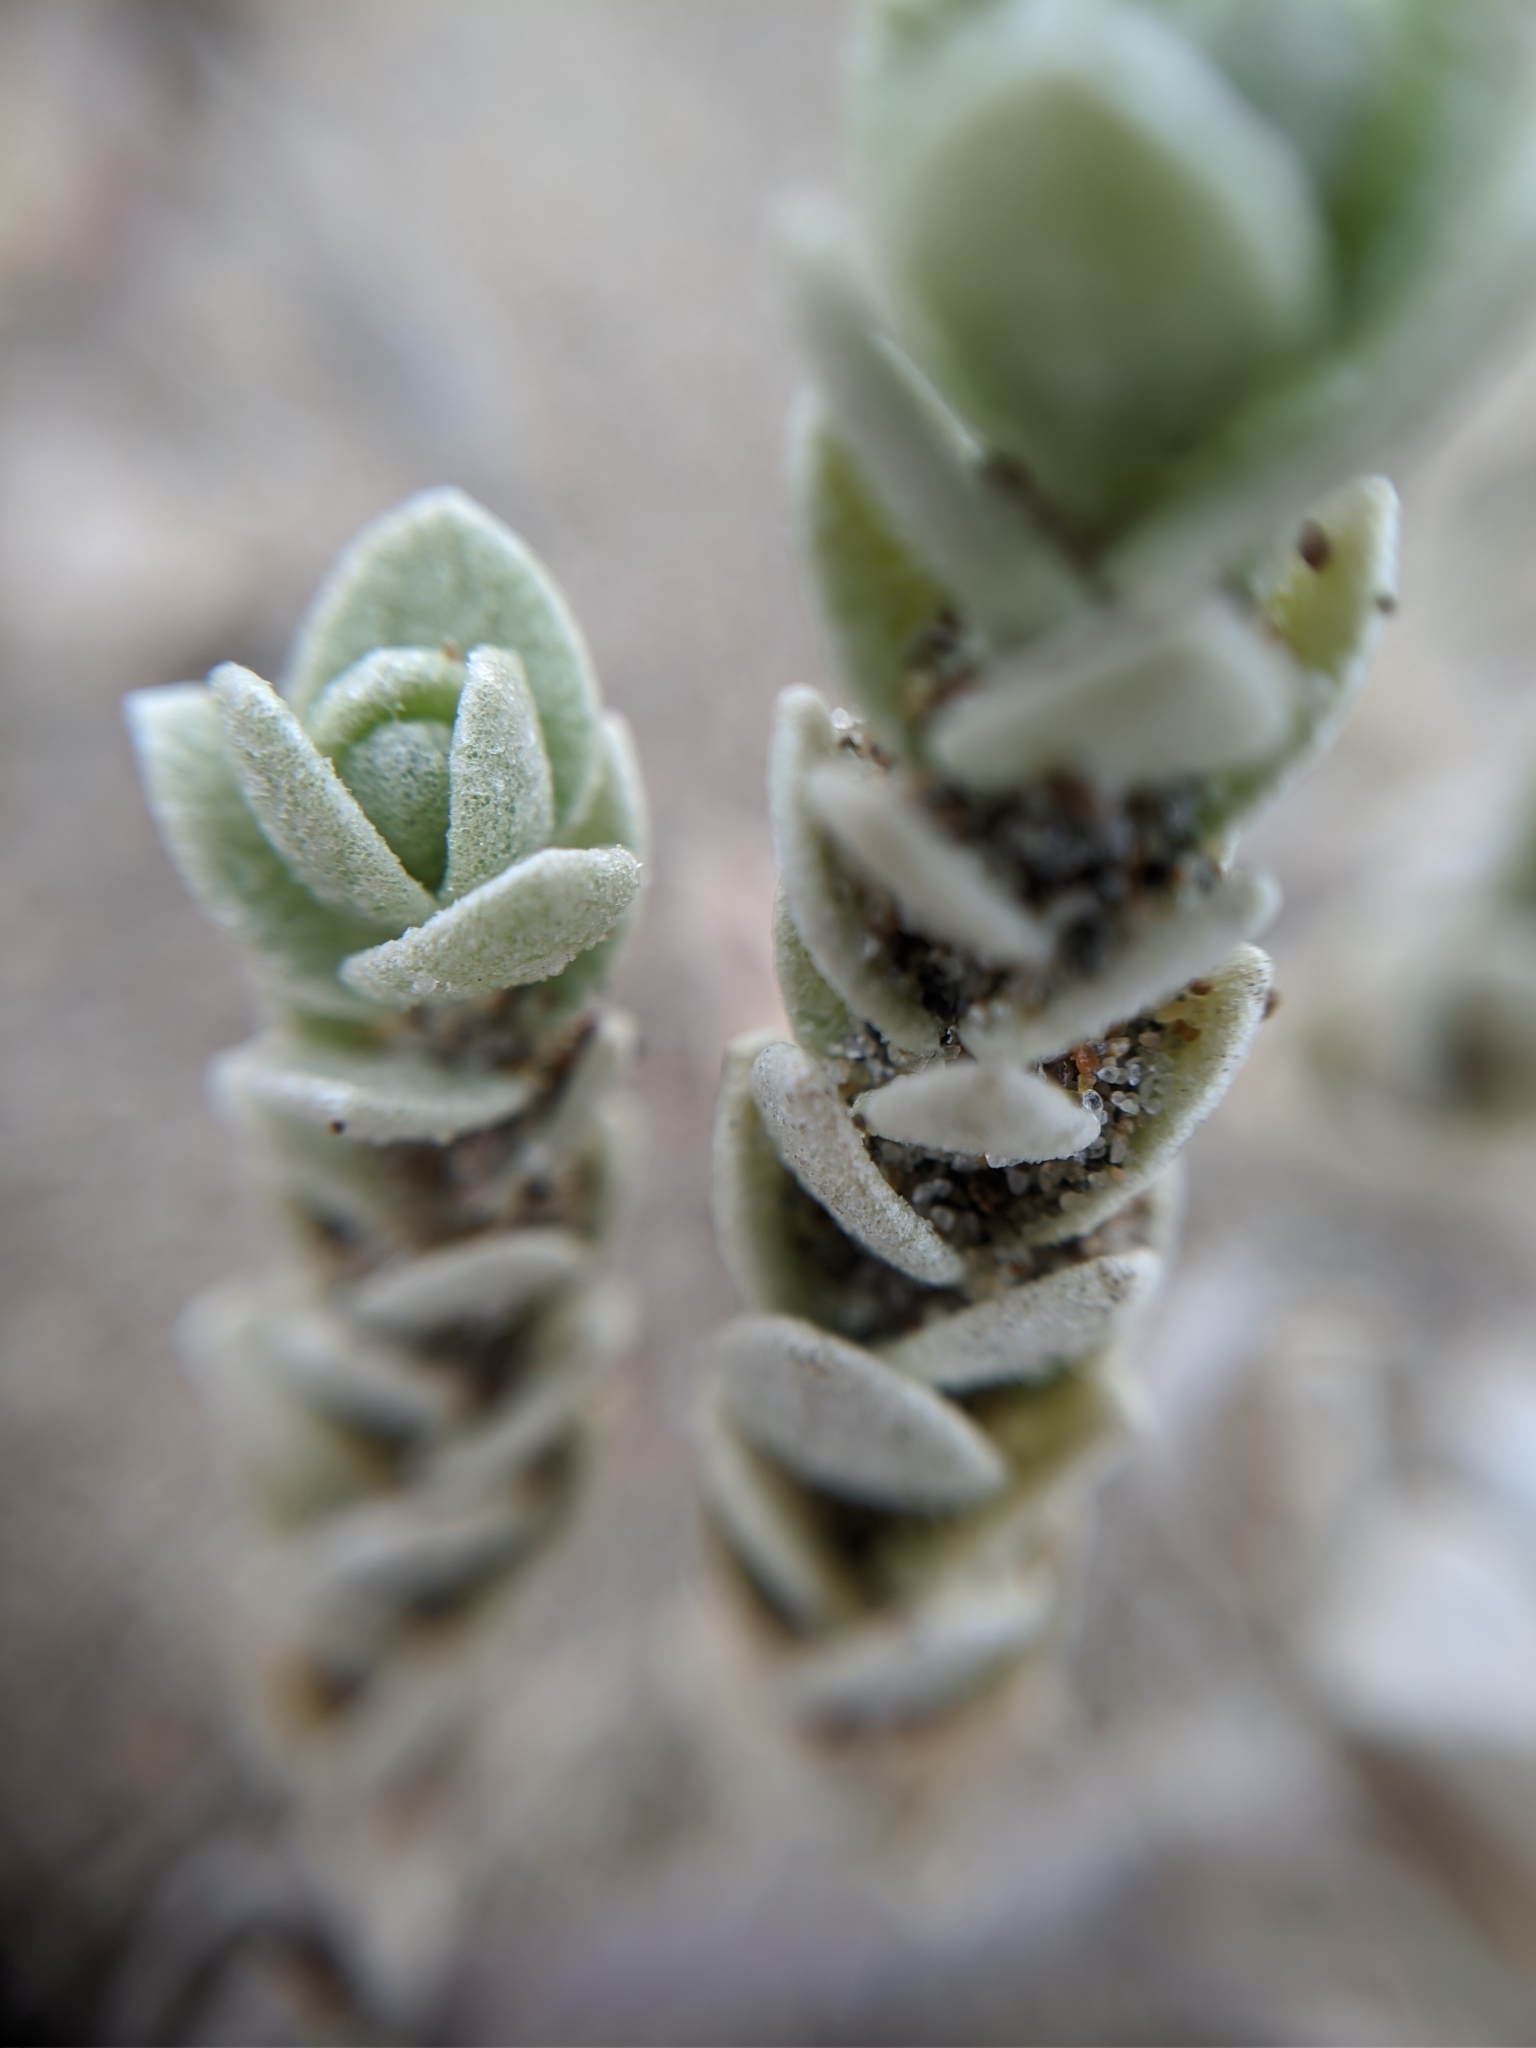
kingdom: Plantae
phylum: Tracheophyta
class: Magnoliopsida
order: Caryophyllales
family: Amaranthaceae
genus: Atriplex
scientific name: Atriplex leucophylla
